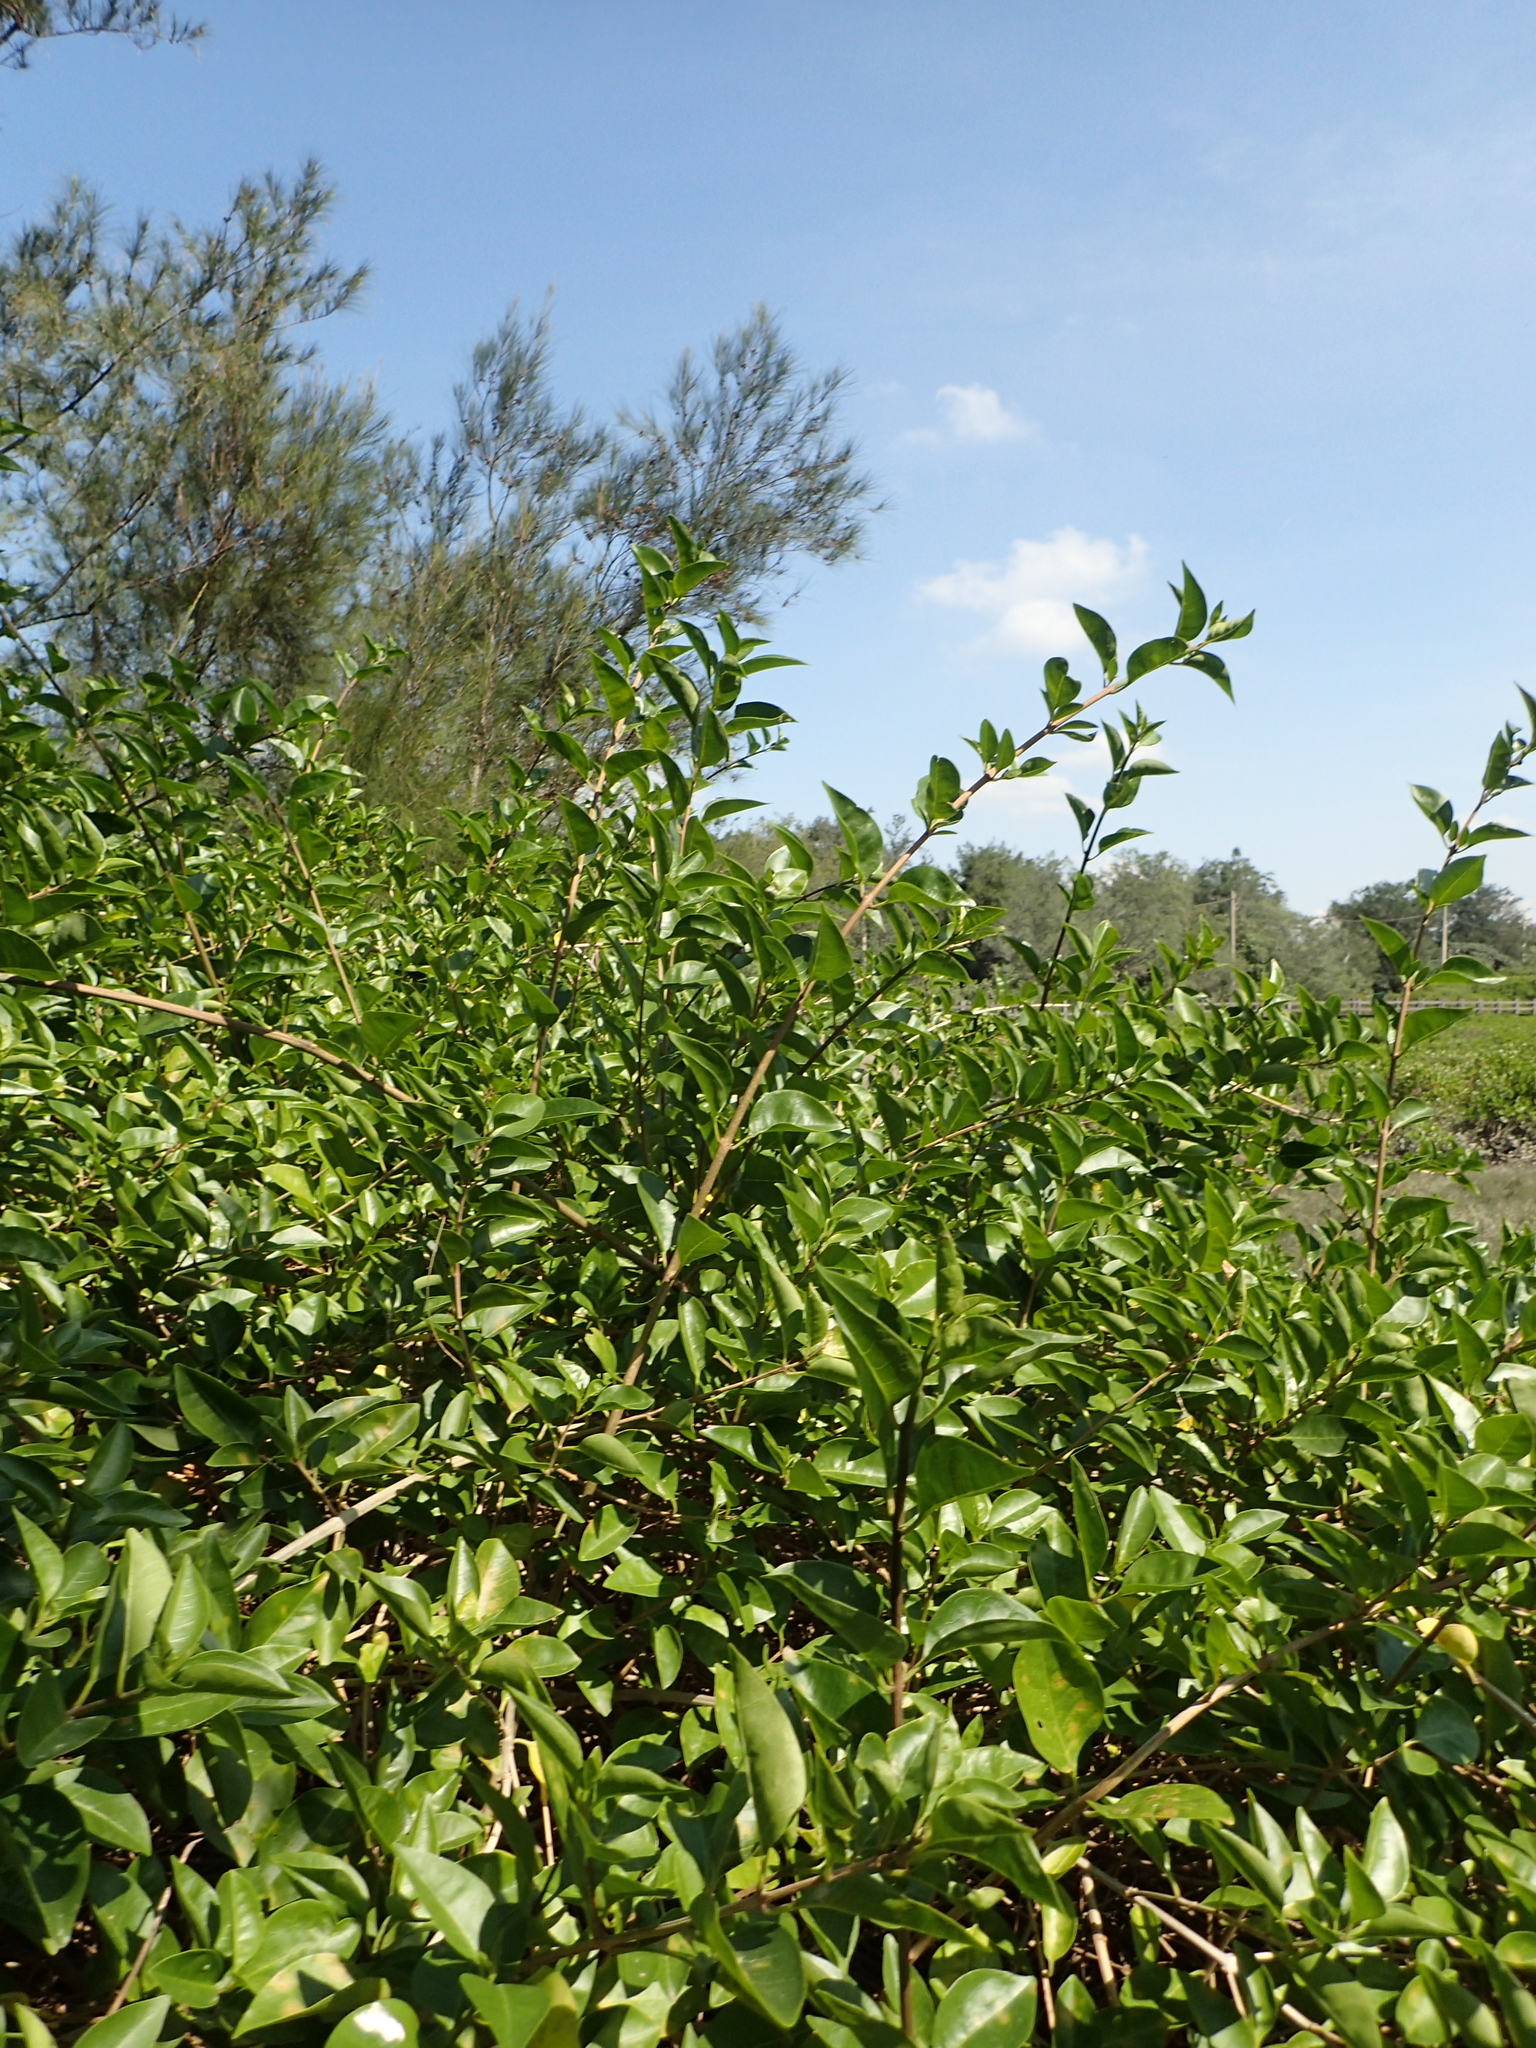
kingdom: Plantae
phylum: Tracheophyta
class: Magnoliopsida
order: Lamiales
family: Lamiaceae
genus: Volkameria
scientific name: Volkameria inermis
